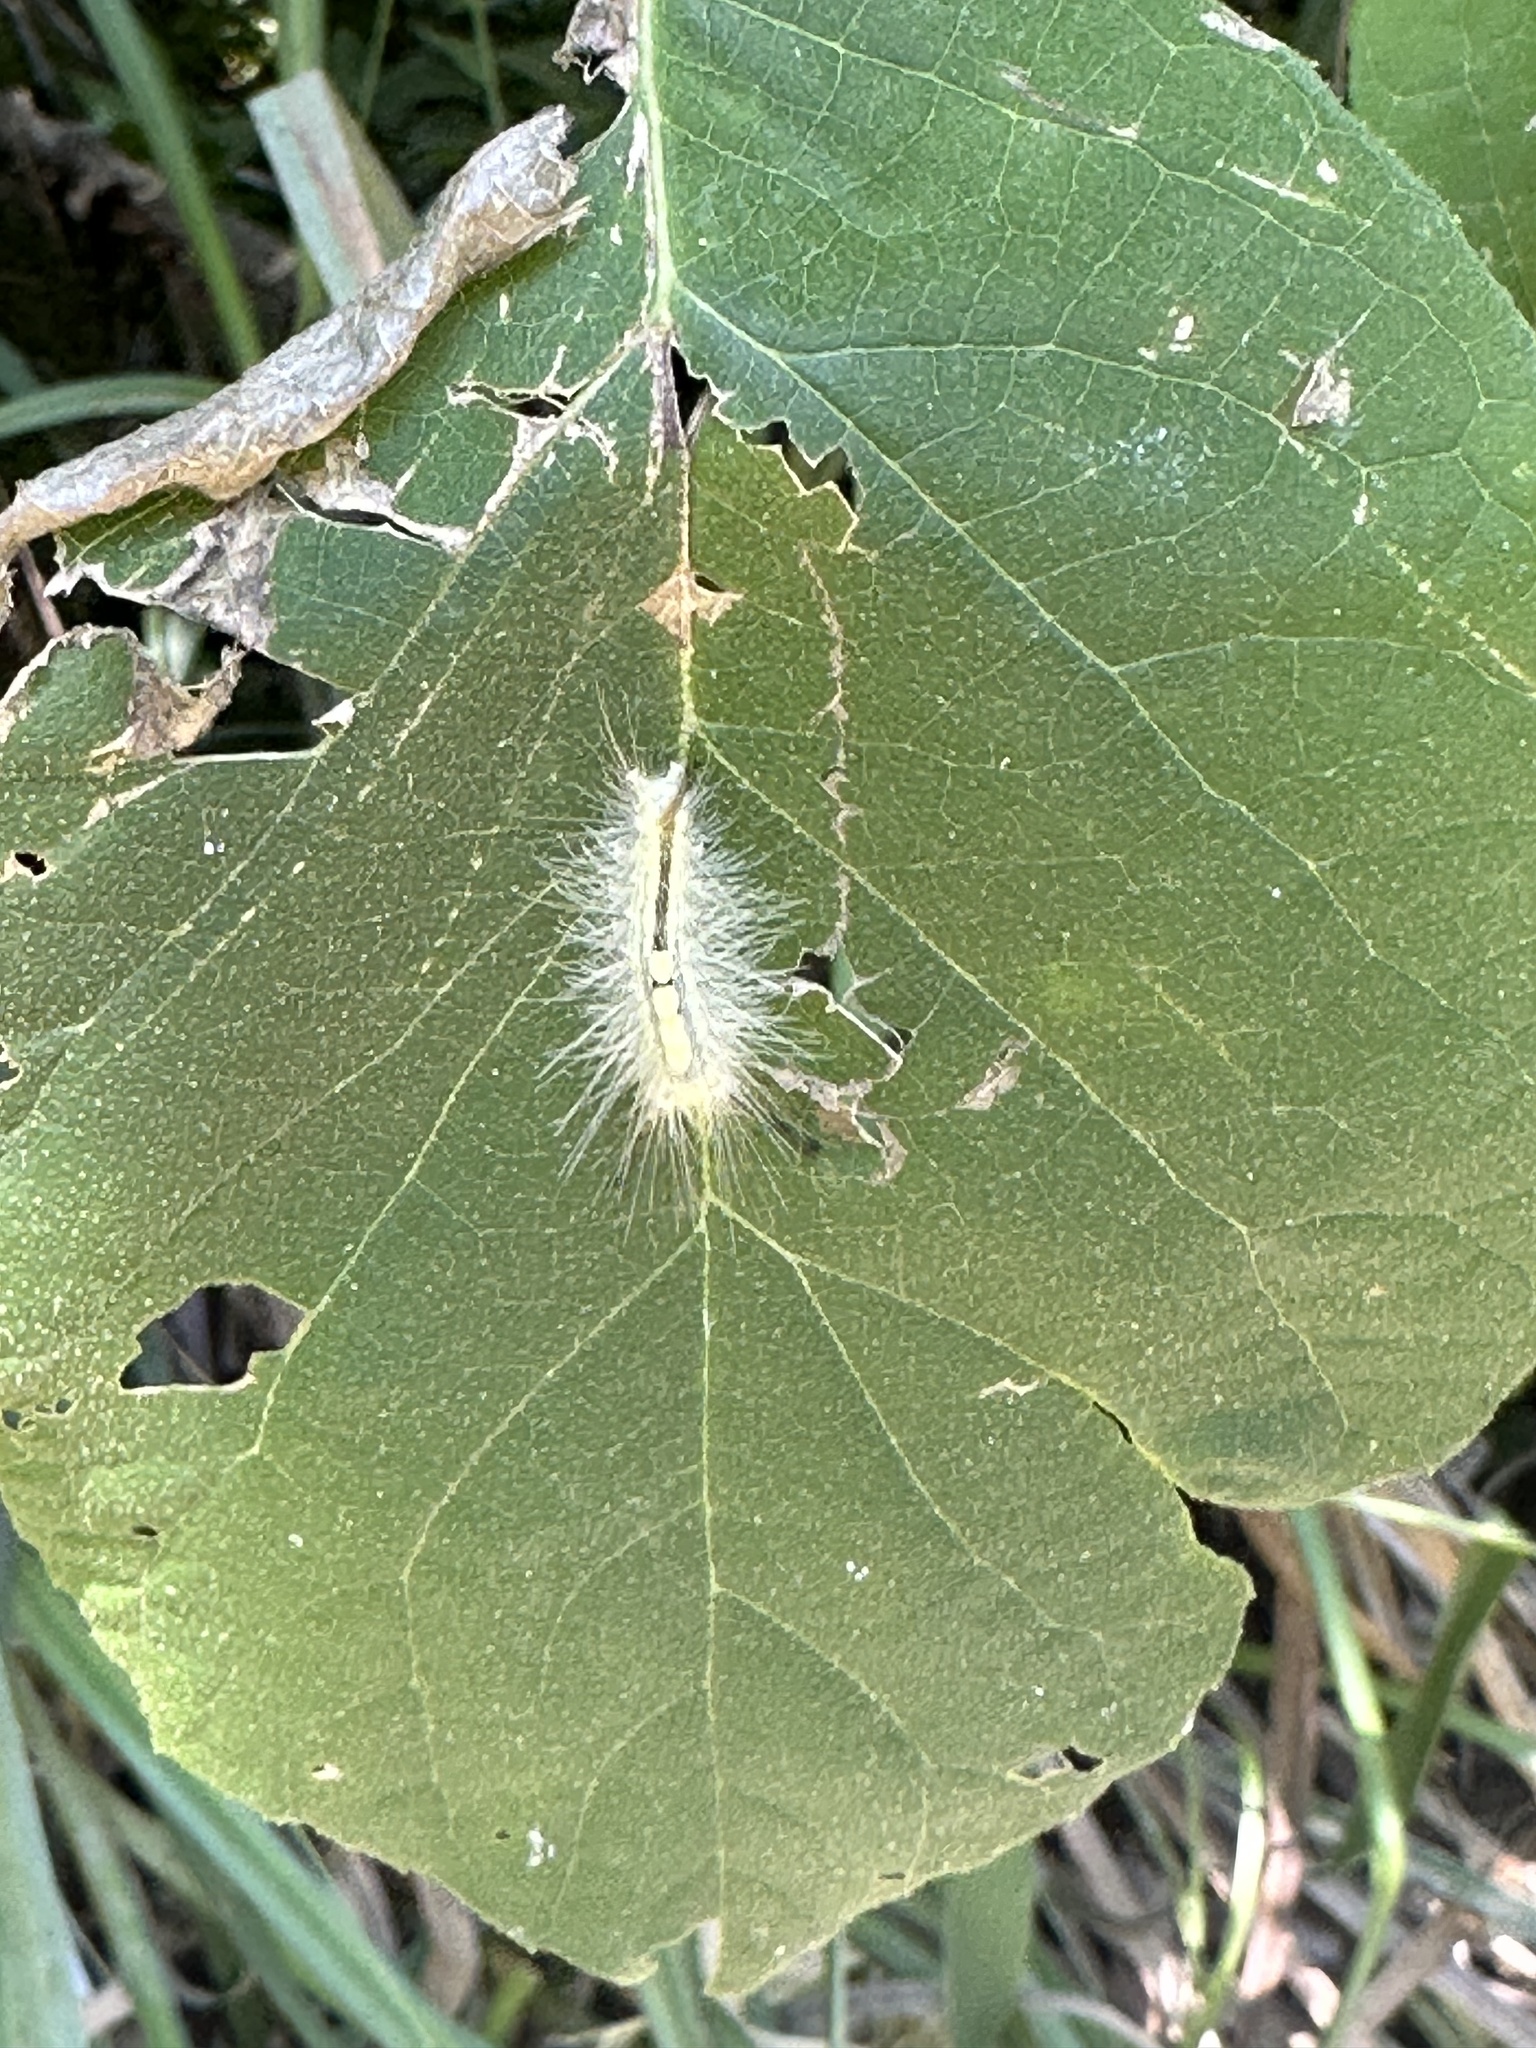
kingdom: Animalia
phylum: Arthropoda
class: Insecta
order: Lepidoptera
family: Erebidae
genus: Orgyia
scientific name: Orgyia definita
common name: Definite tussock moth
